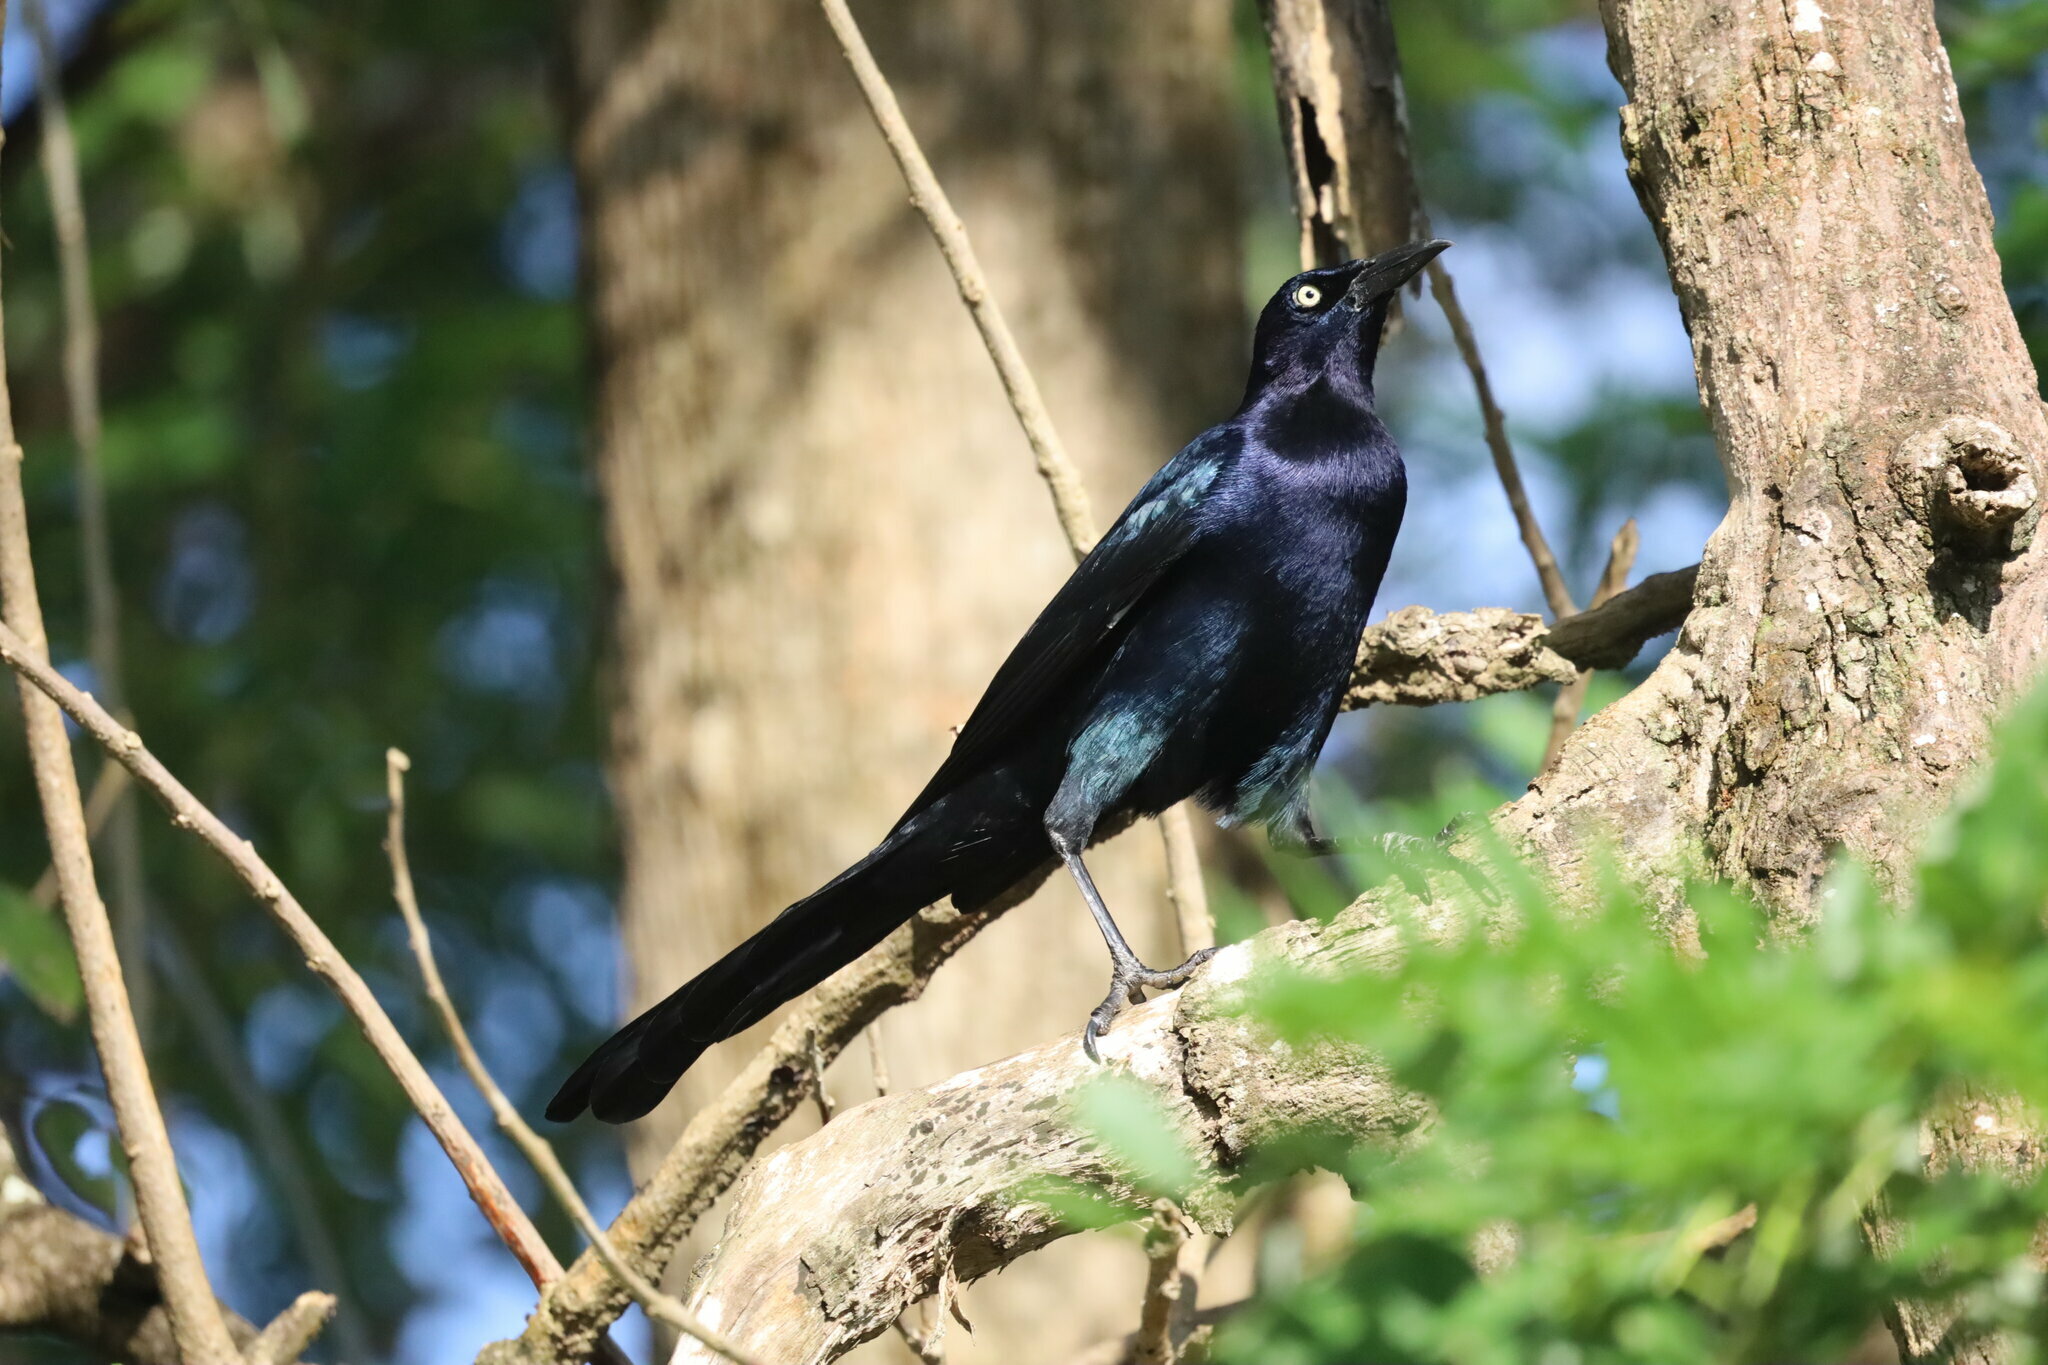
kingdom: Animalia
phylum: Chordata
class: Aves
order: Passeriformes
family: Icteridae
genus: Quiscalus
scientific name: Quiscalus mexicanus
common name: Great-tailed grackle
